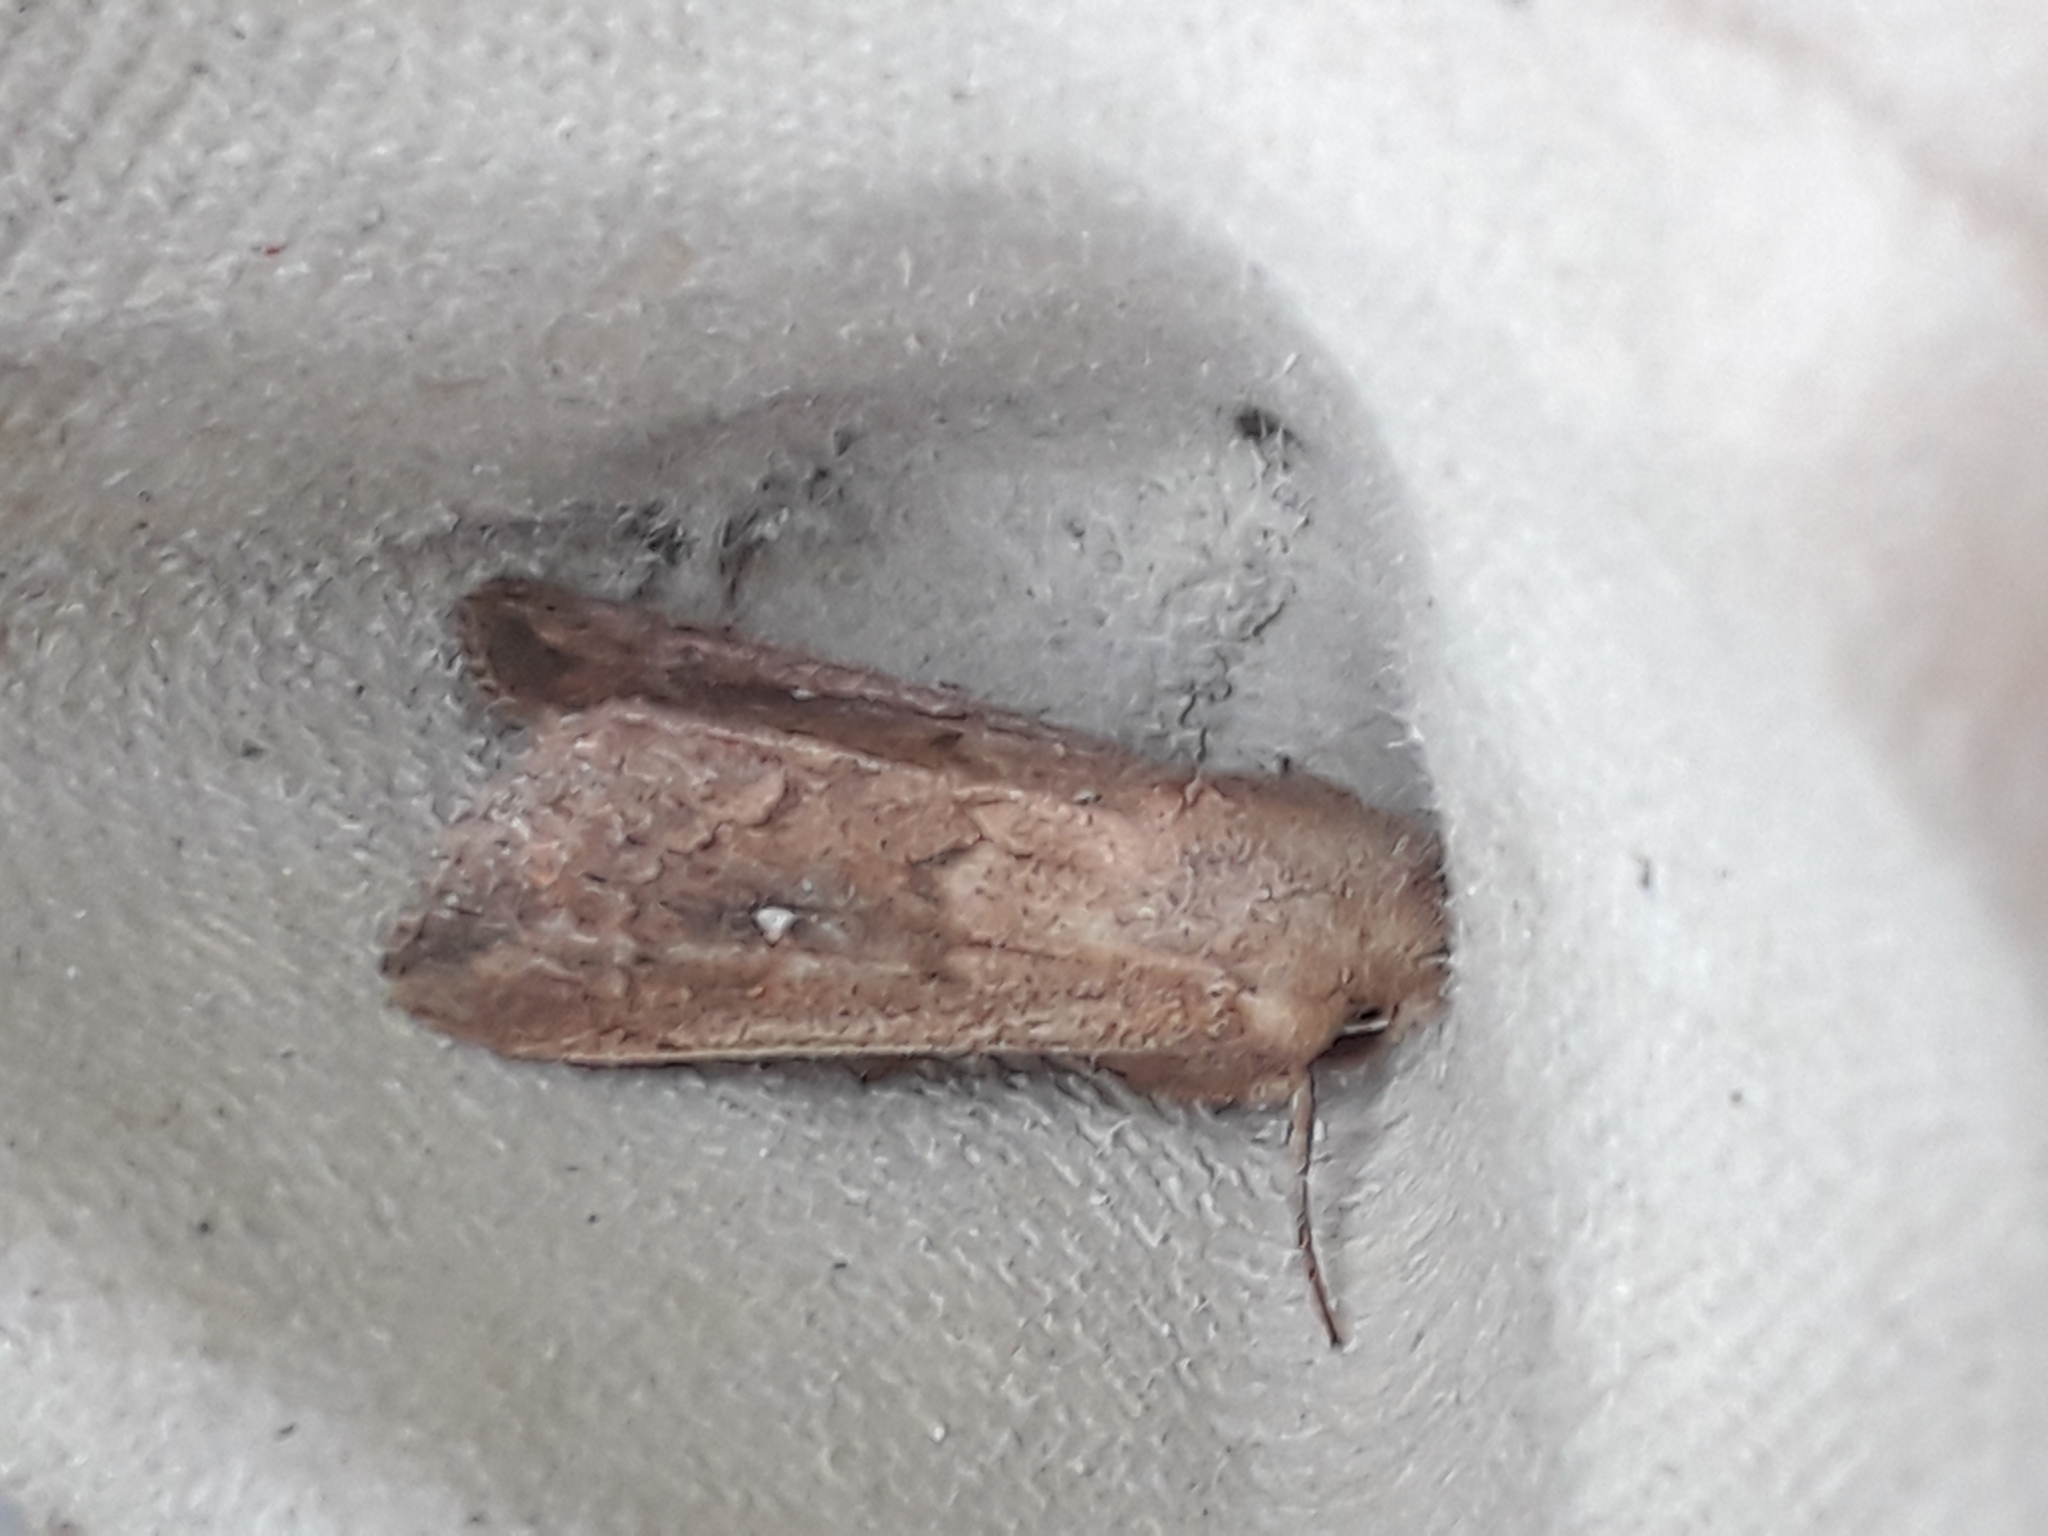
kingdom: Animalia
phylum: Arthropoda
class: Insecta
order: Lepidoptera
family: Noctuidae
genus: Mythimna
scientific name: Mythimna albipuncta
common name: White-point
